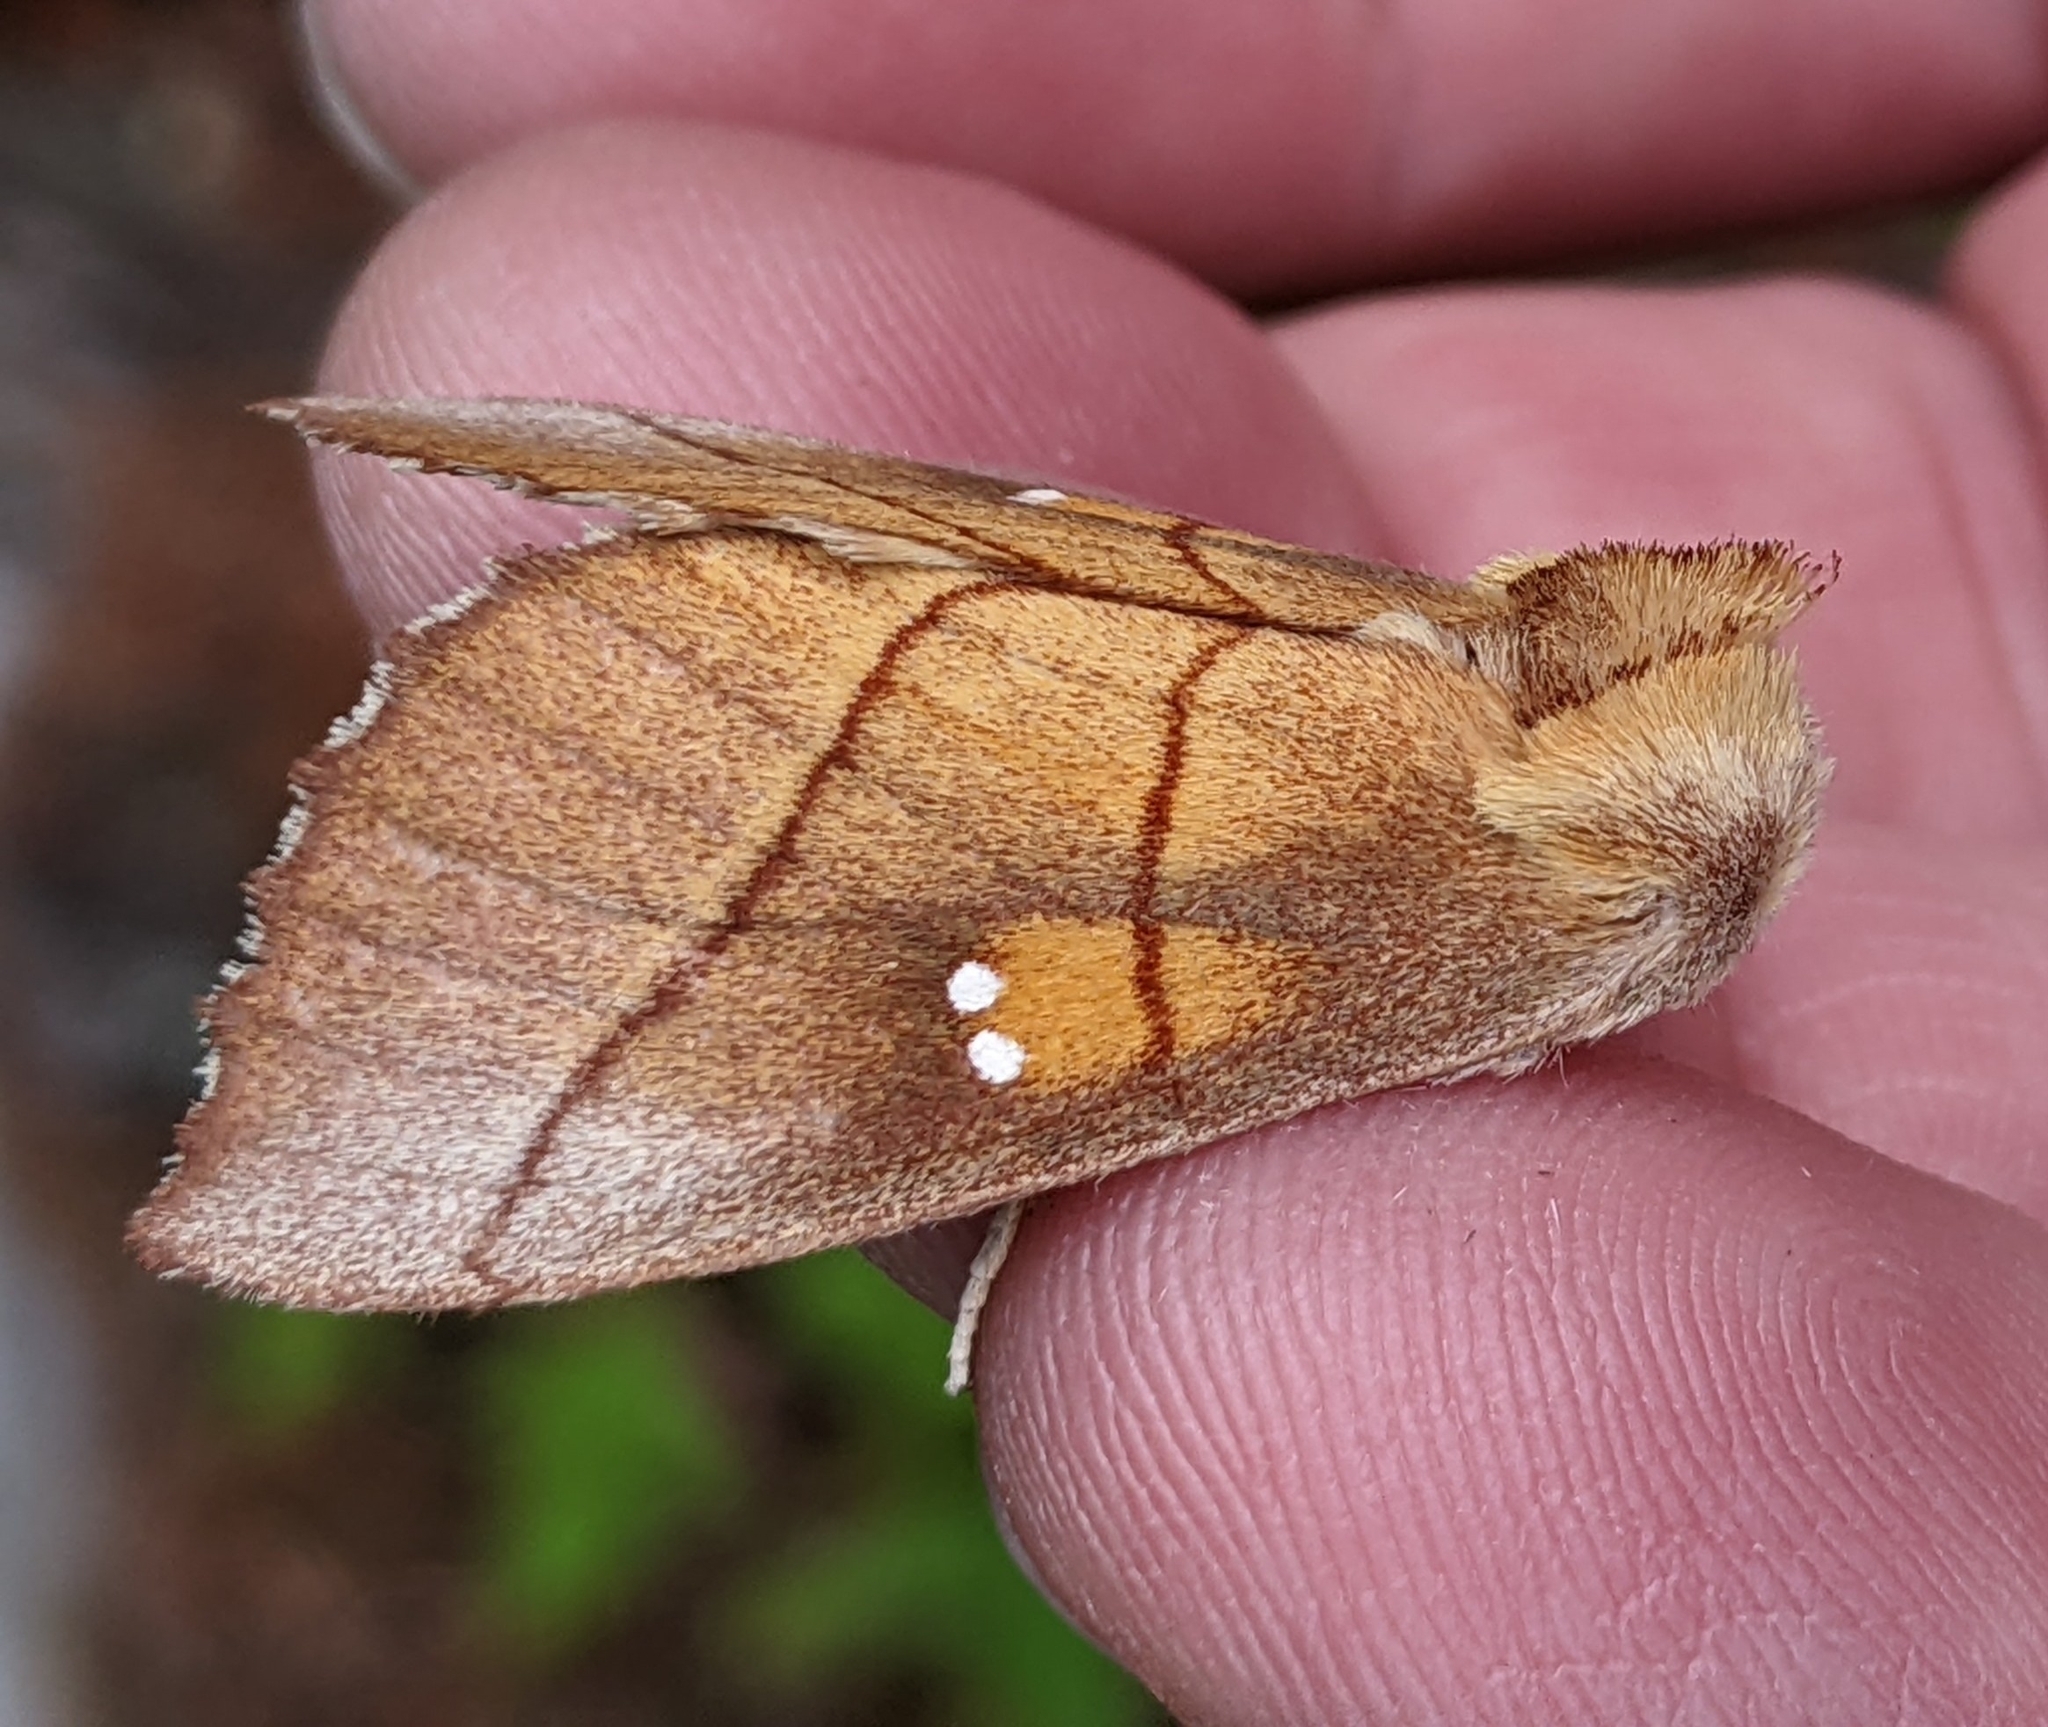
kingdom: Animalia
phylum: Arthropoda
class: Insecta
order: Lepidoptera
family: Notodontidae
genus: Nadata
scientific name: Nadata gibbosa
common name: White-dotted prominent
